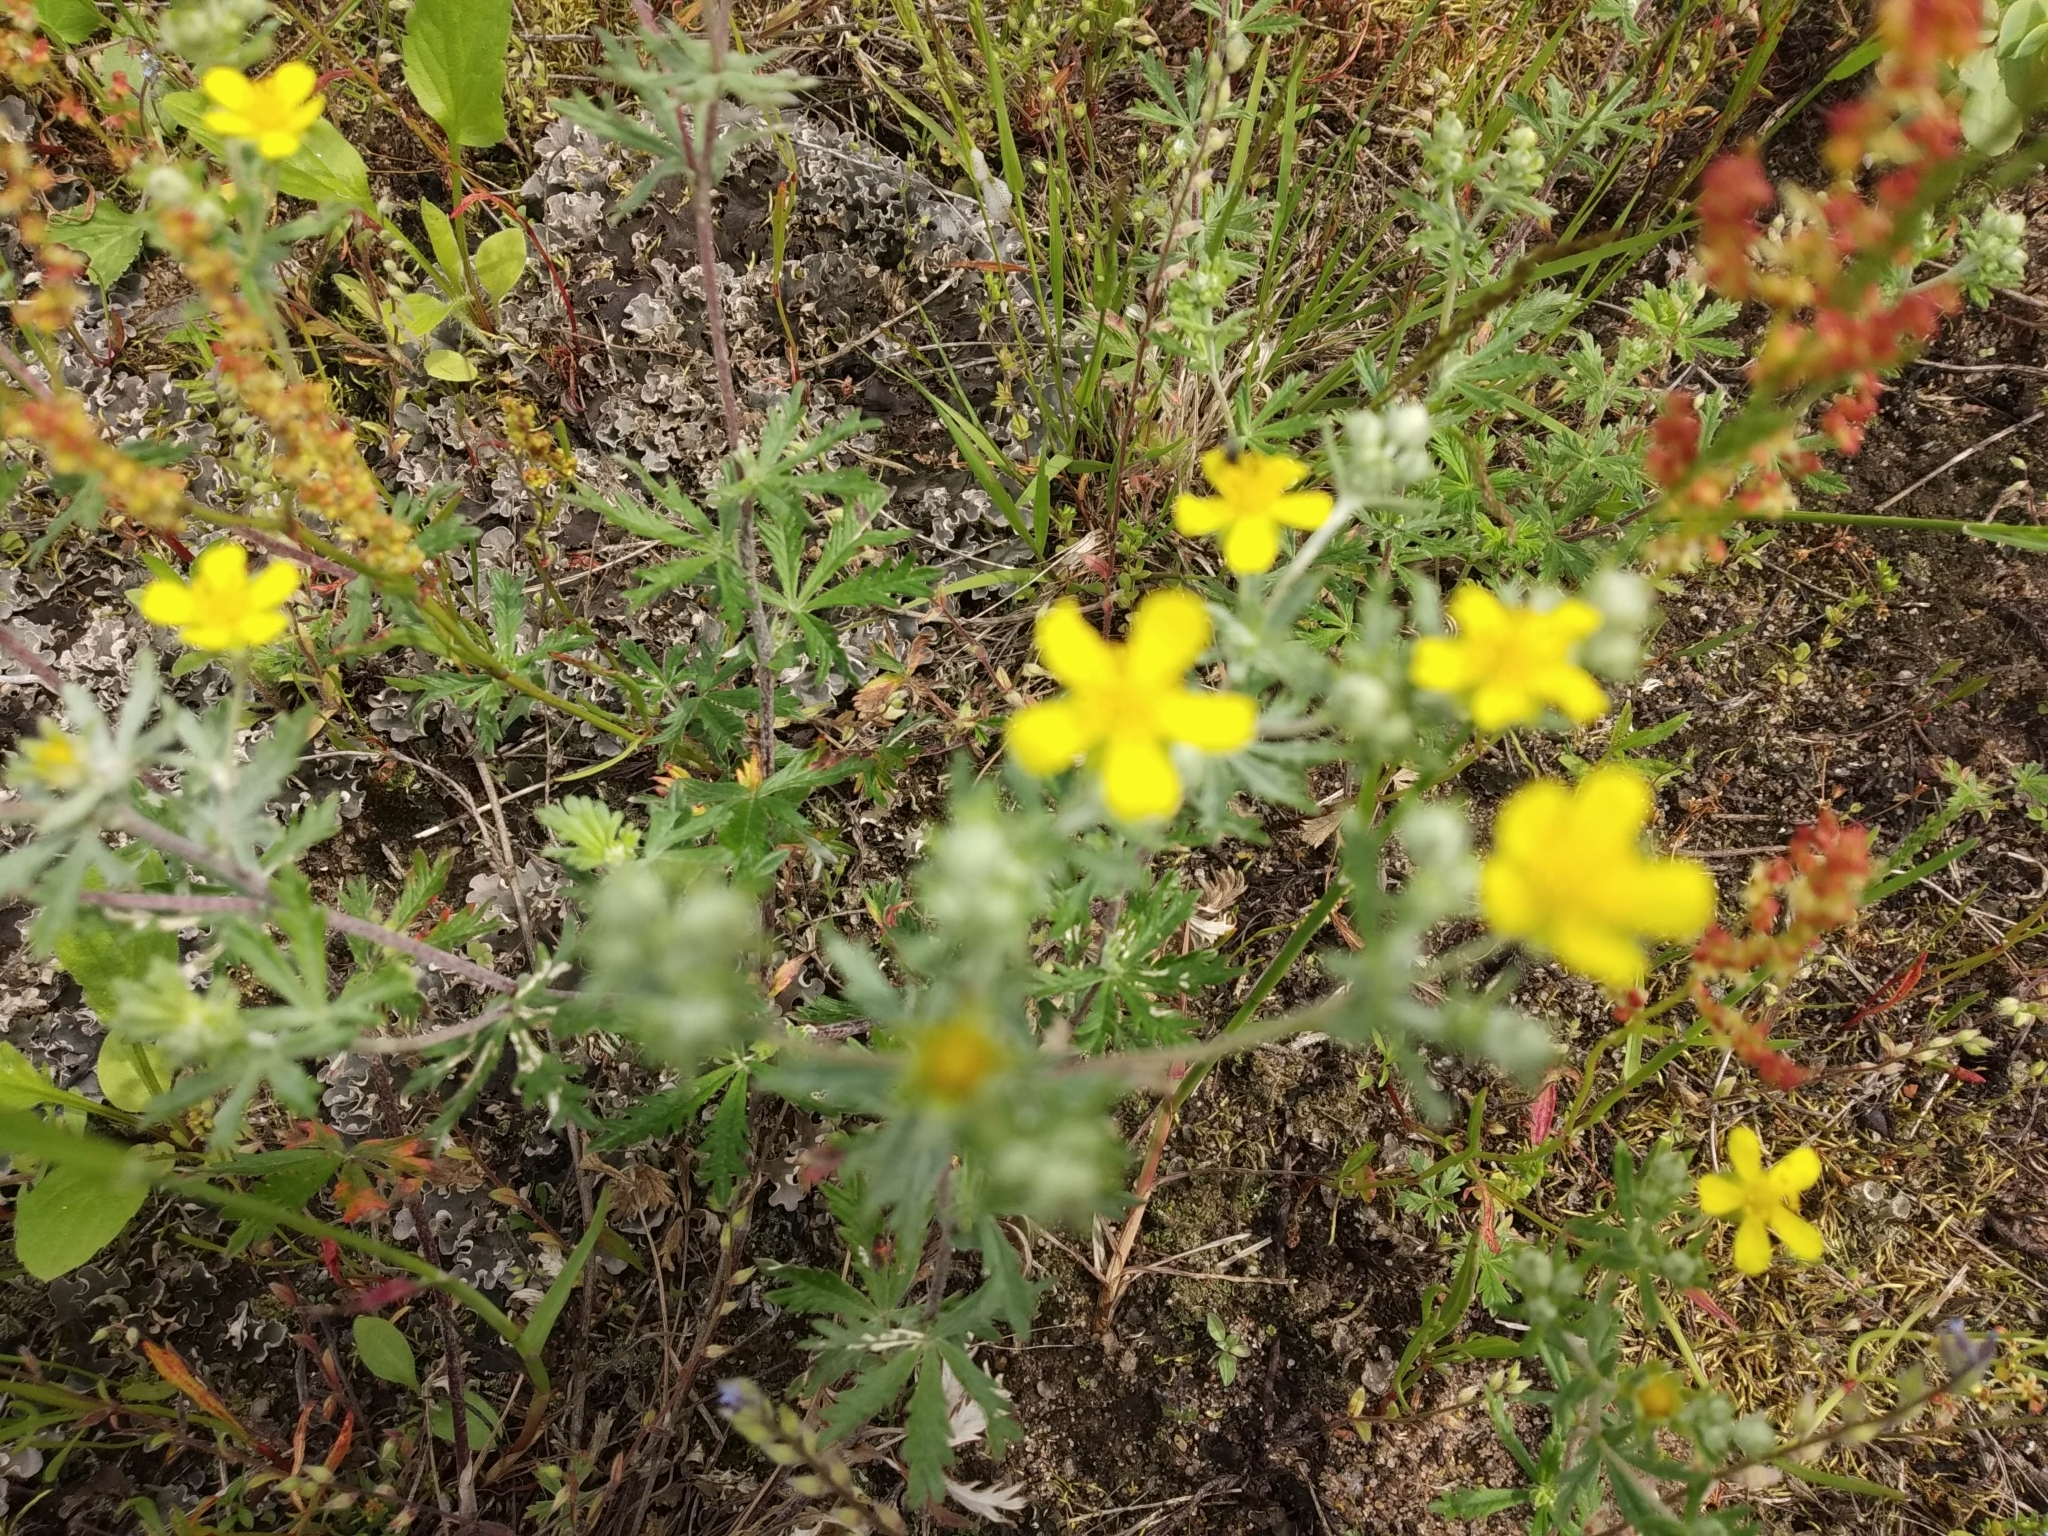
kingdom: Plantae
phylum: Tracheophyta
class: Magnoliopsida
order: Rosales
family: Rosaceae
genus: Potentilla
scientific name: Potentilla argentea
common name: Hoary cinquefoil
